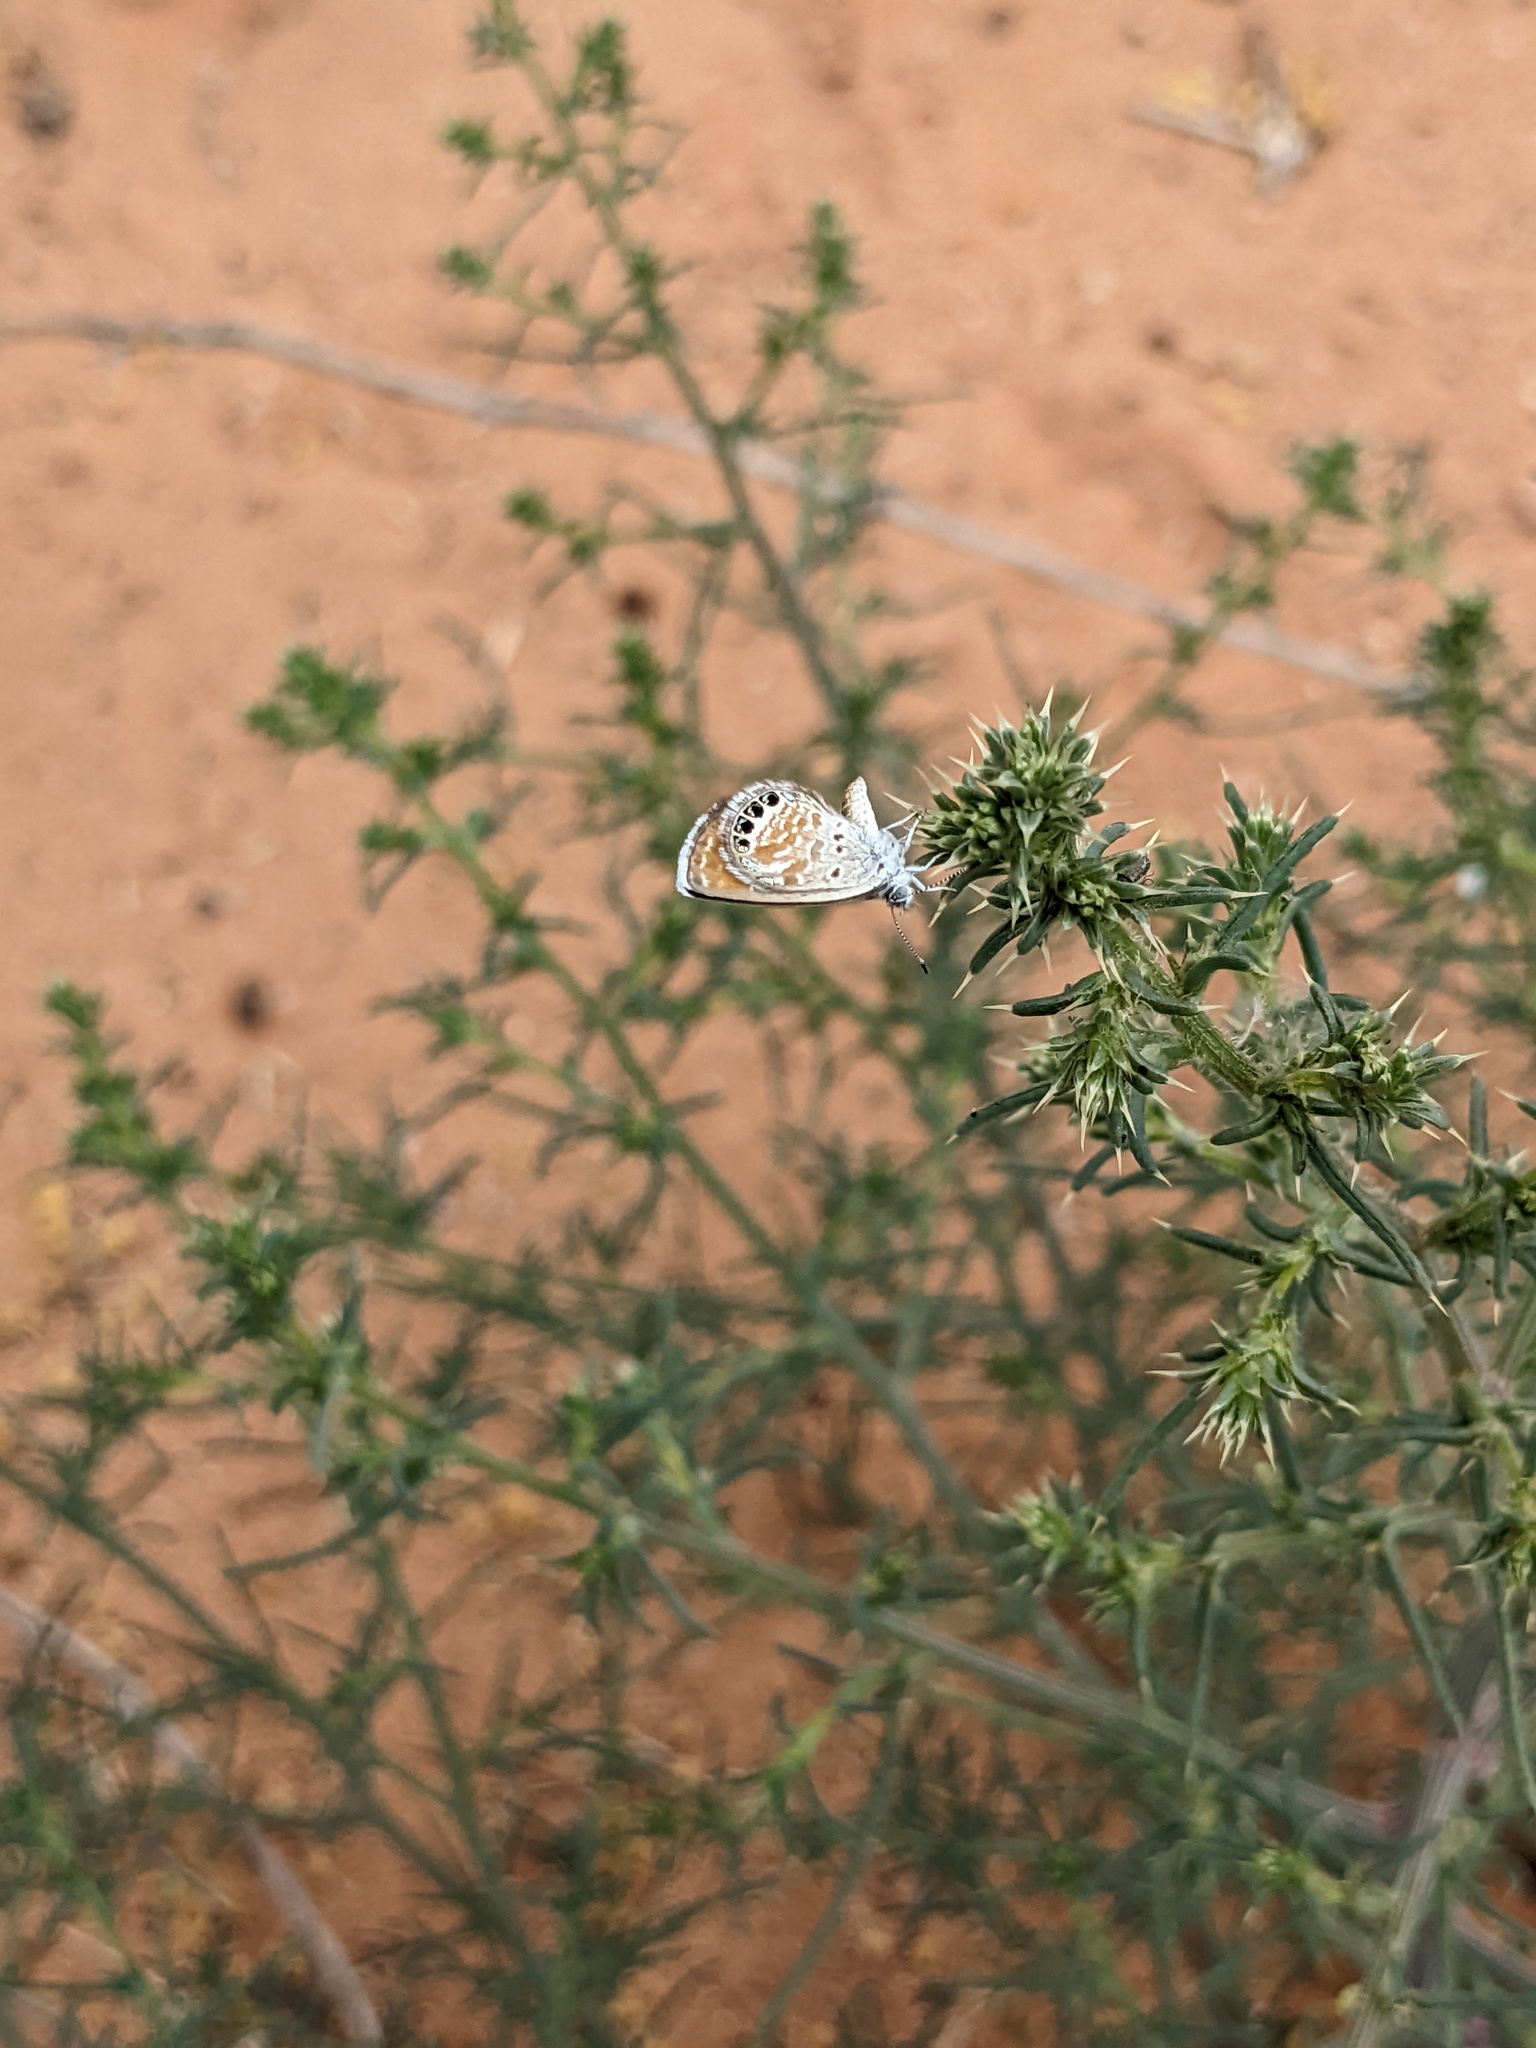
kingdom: Animalia
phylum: Arthropoda
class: Insecta
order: Lepidoptera
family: Lycaenidae
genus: Brephidium
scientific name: Brephidium exilis
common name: Pygmy blue
